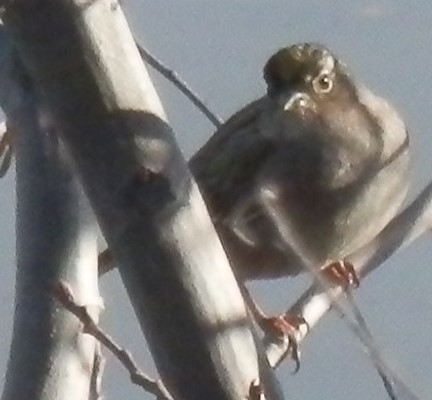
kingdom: Animalia
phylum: Chordata
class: Aves
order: Passeriformes
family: Passerellidae
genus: Zonotrichia
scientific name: Zonotrichia atricapilla
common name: Golden-crowned sparrow
